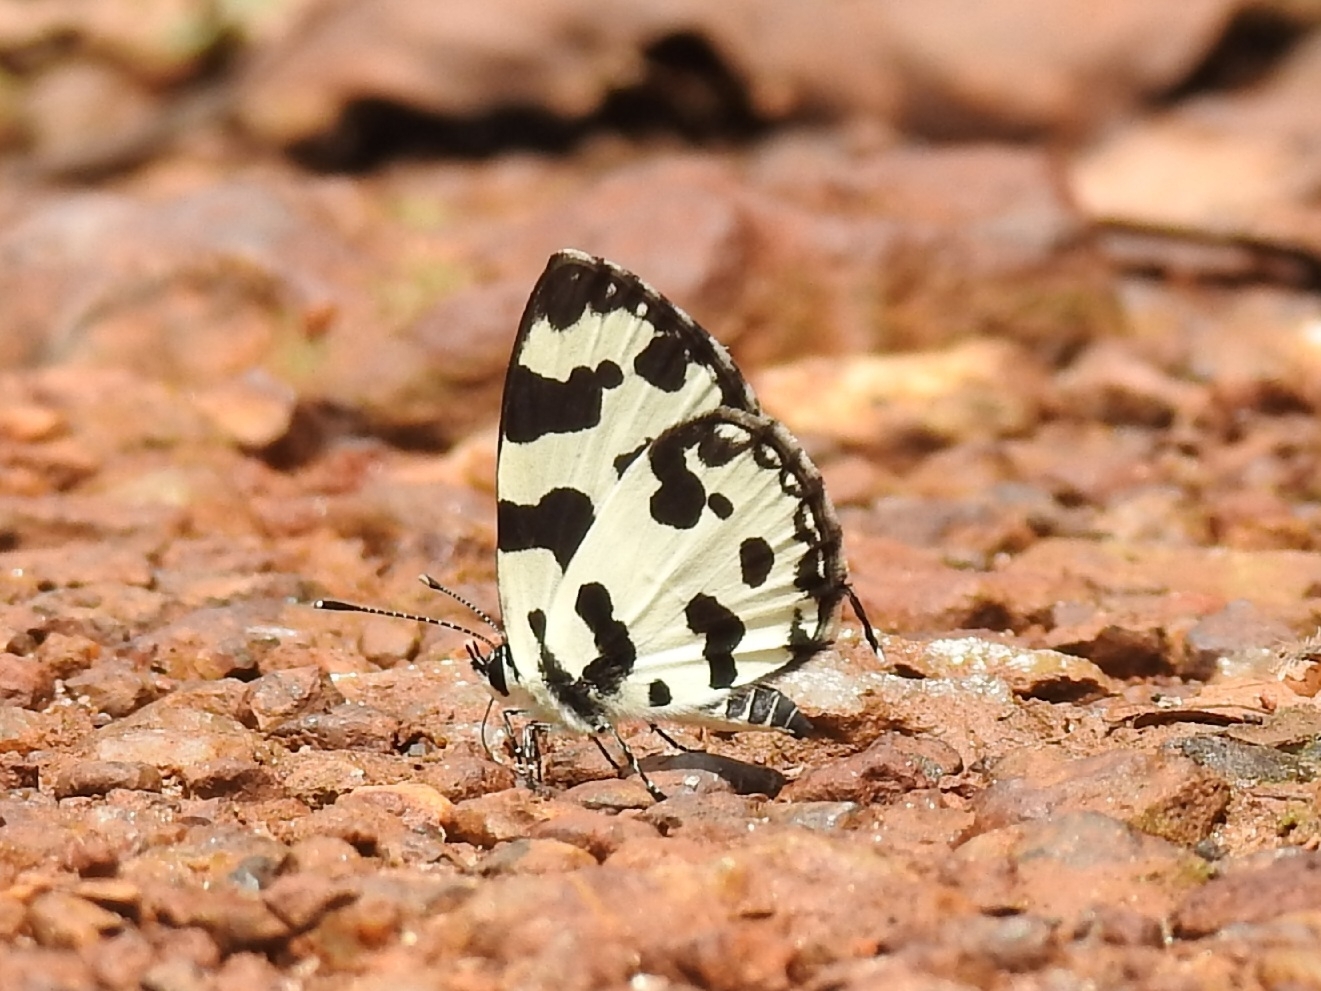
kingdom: Animalia
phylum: Arthropoda
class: Insecta
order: Lepidoptera
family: Lycaenidae
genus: Caleta
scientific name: Caleta decidia
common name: Angled pierrot
